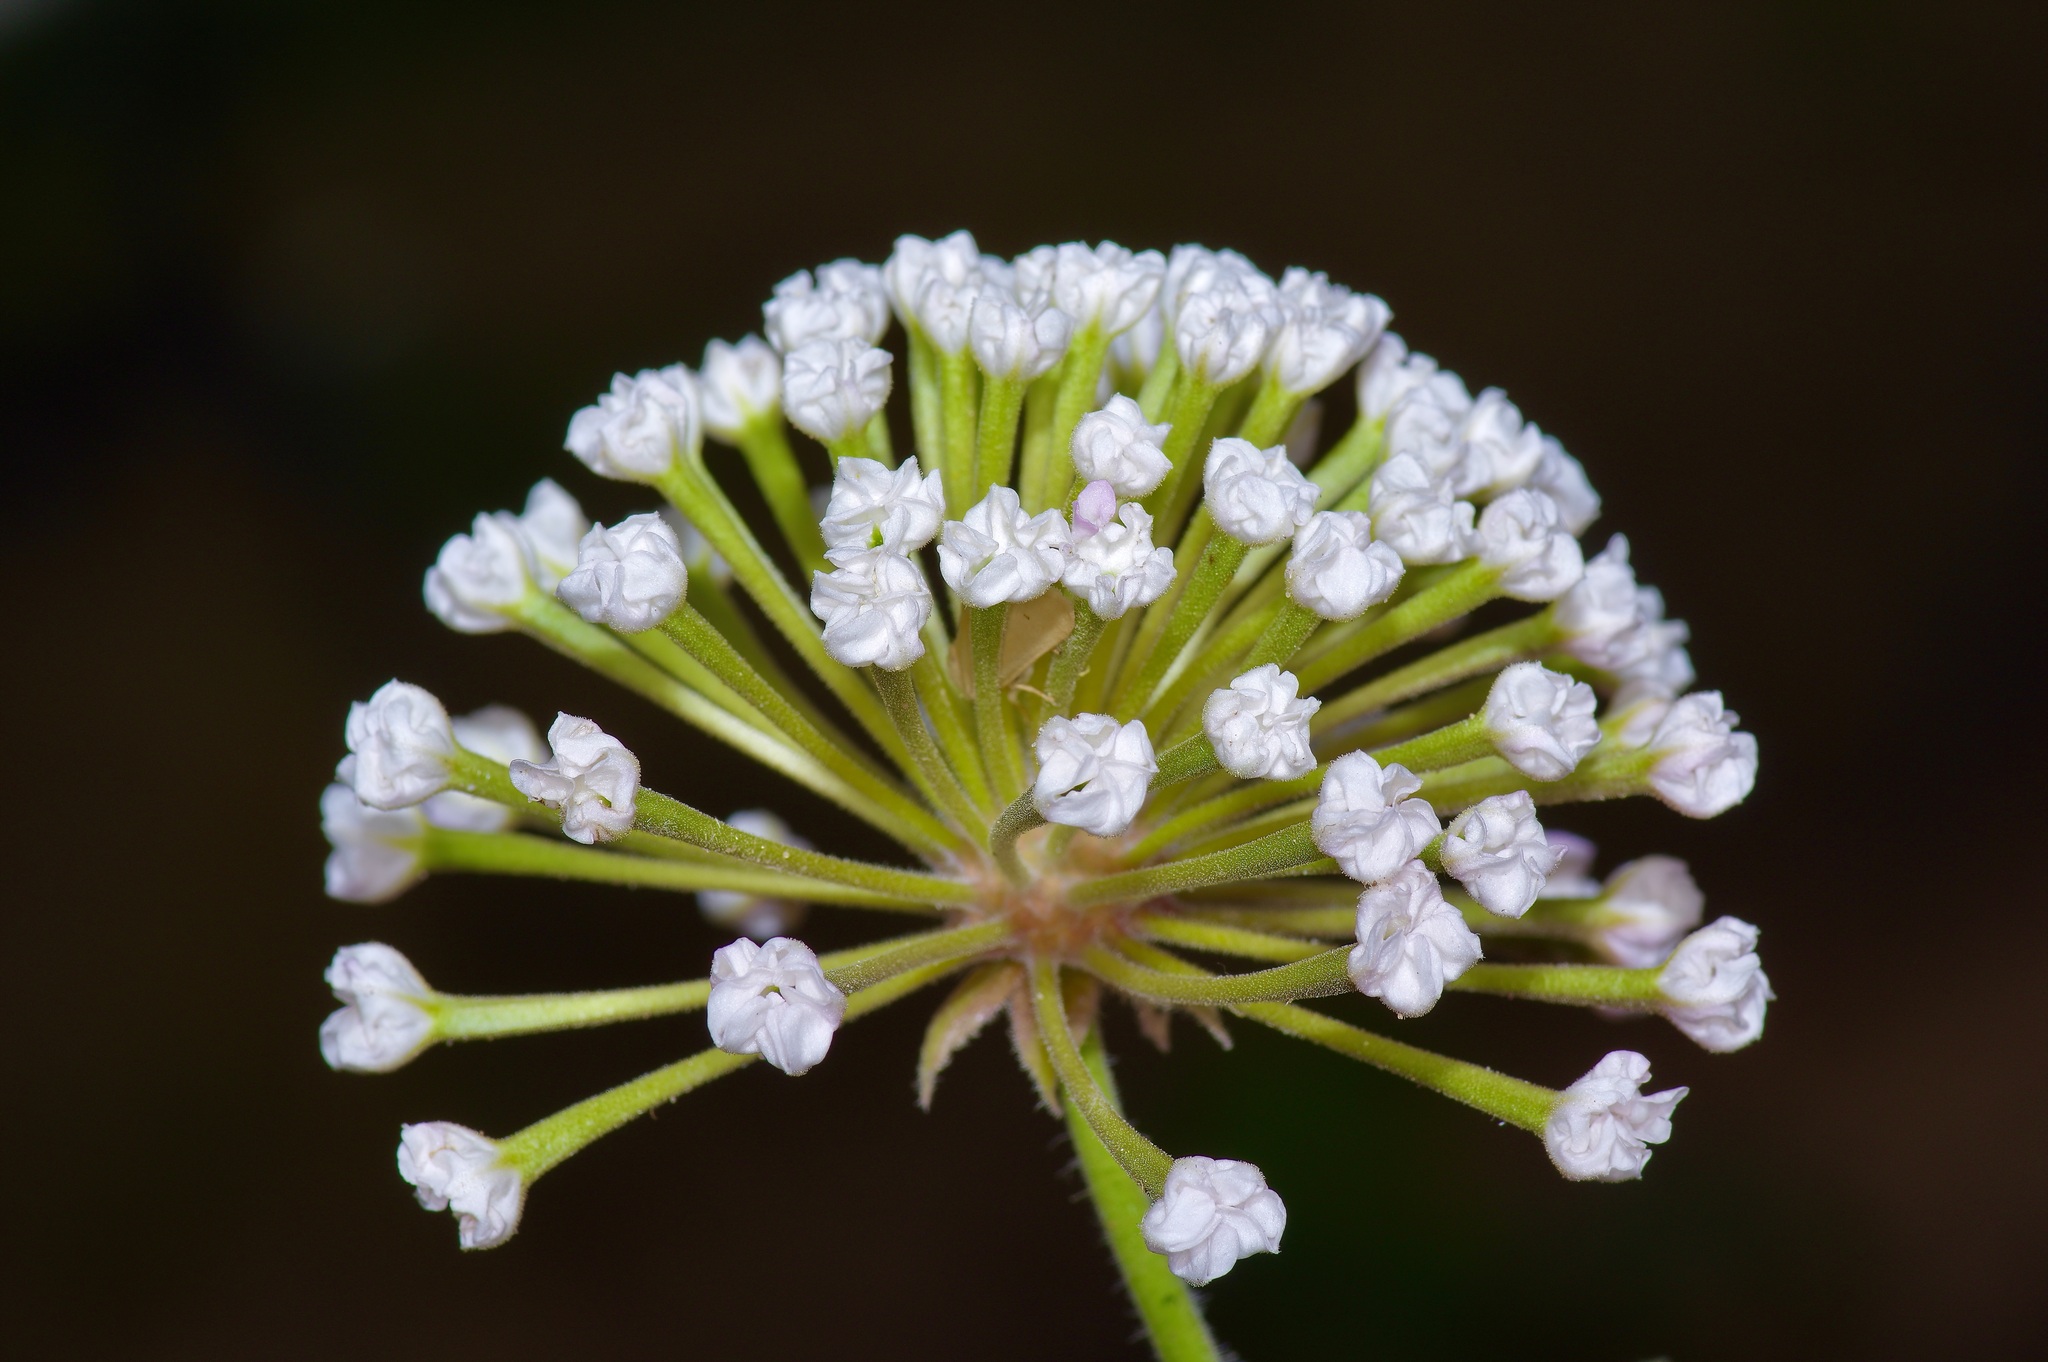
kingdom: Plantae
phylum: Tracheophyta
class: Magnoliopsida
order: Caryophyllales
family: Nyctaginaceae
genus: Abronia
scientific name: Abronia fragrans
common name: Fragrant sand-verbena
